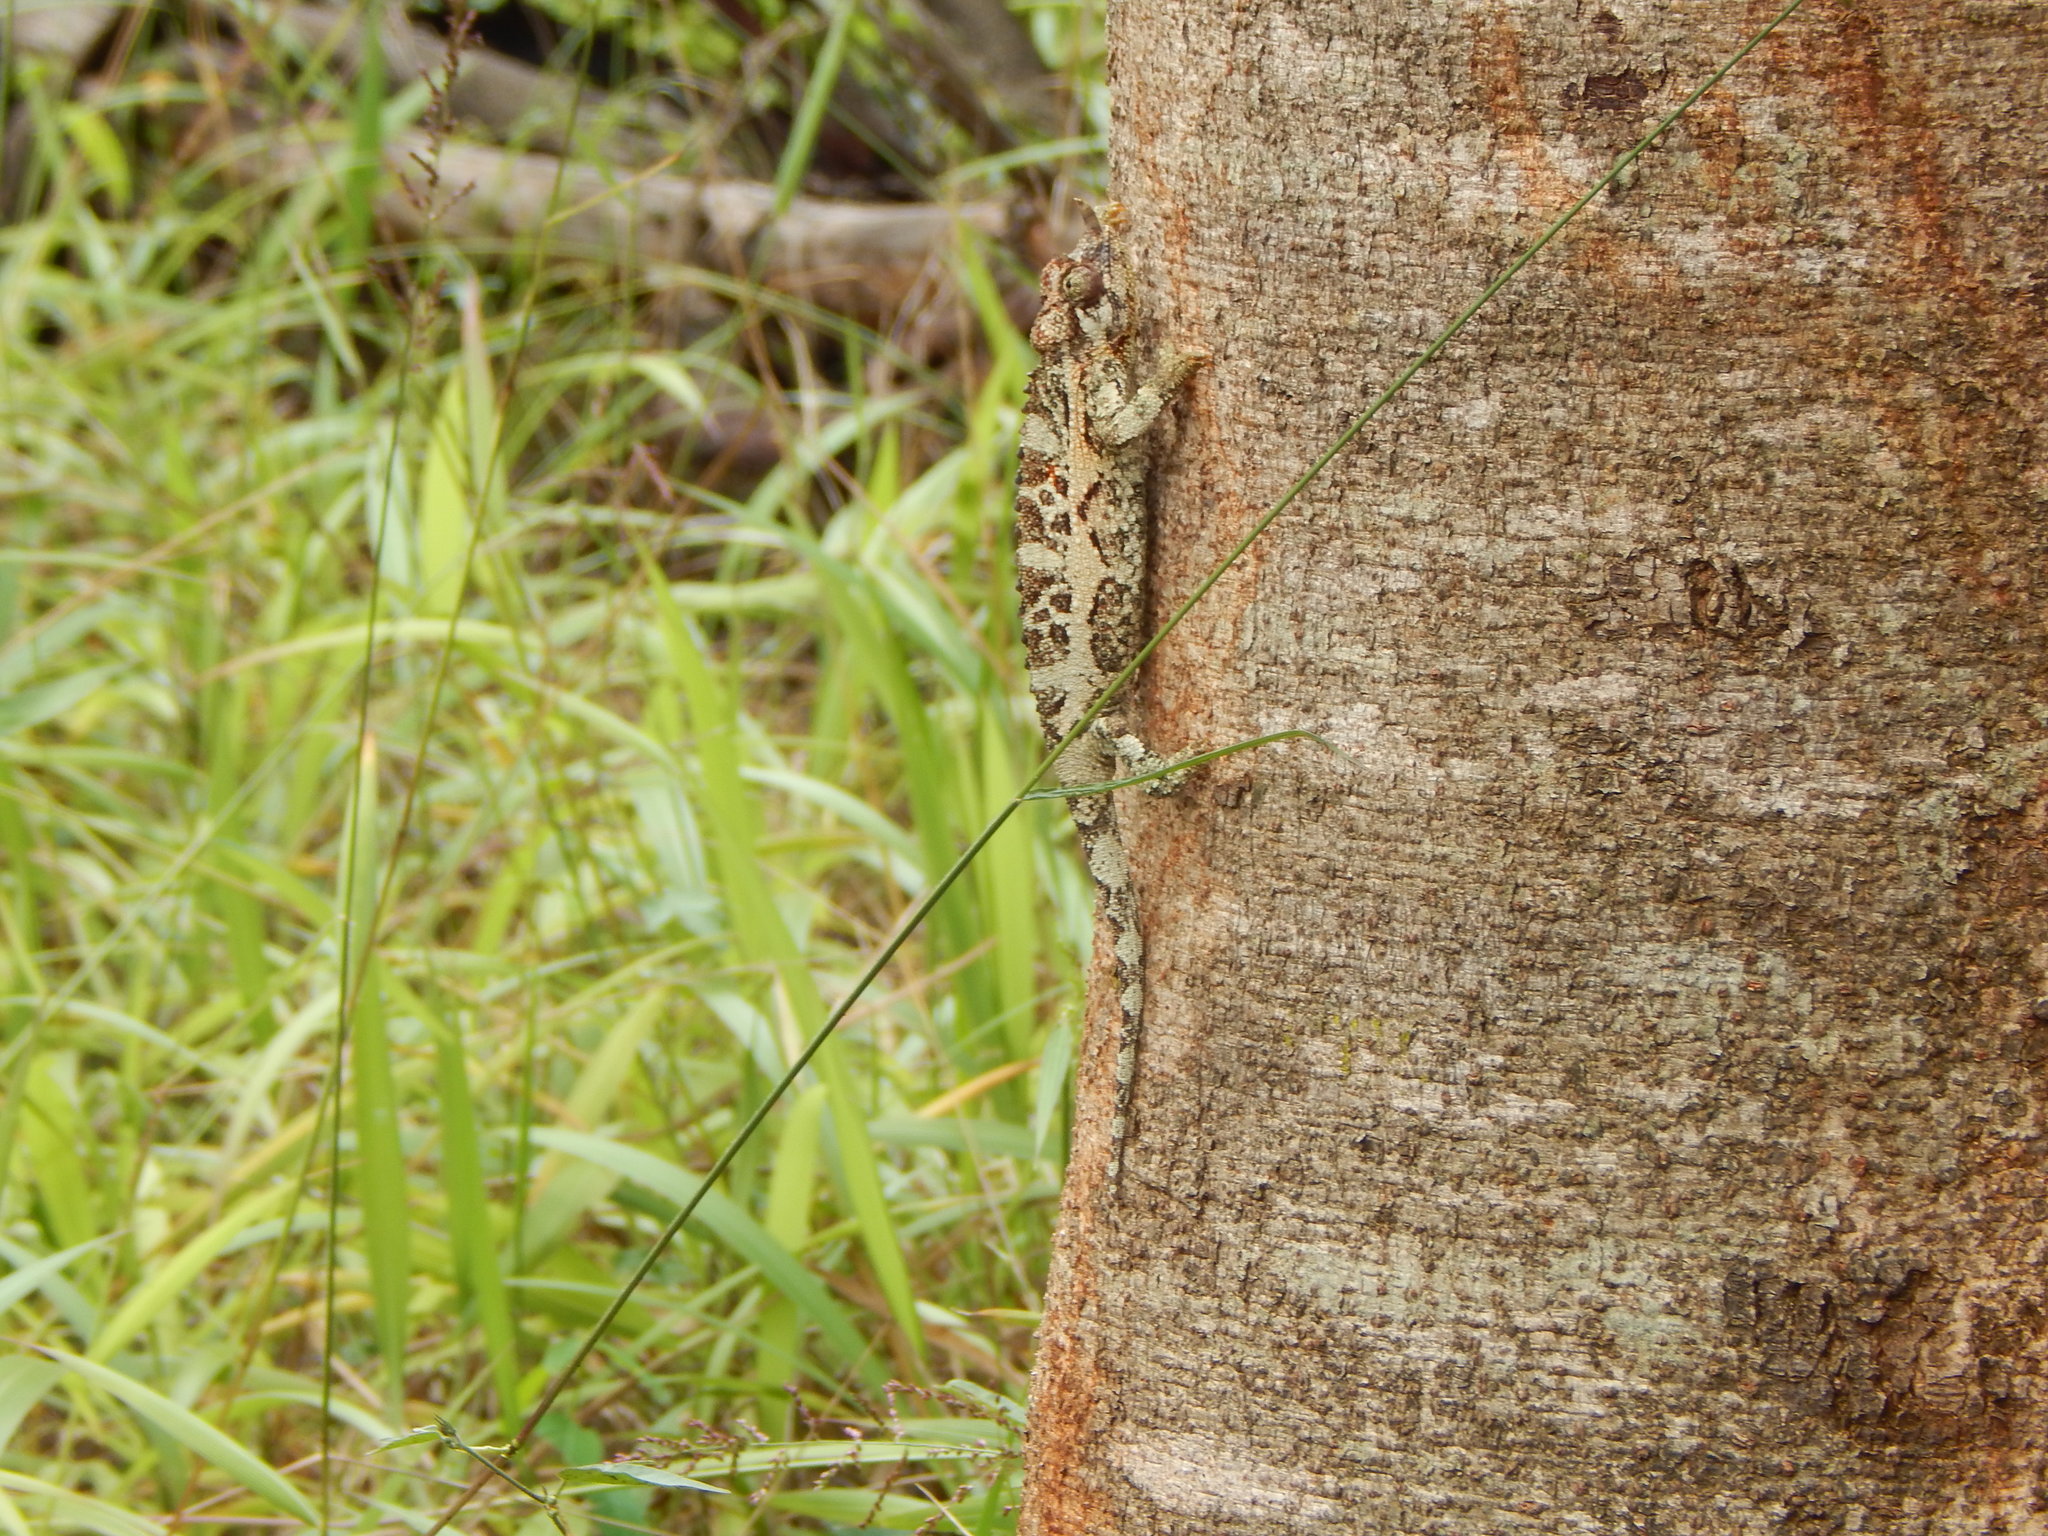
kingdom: Animalia
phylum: Chordata
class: Squamata
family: Chamaeleonidae
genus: Trioceros
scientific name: Trioceros jacksonii
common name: Jackson's chameleon
